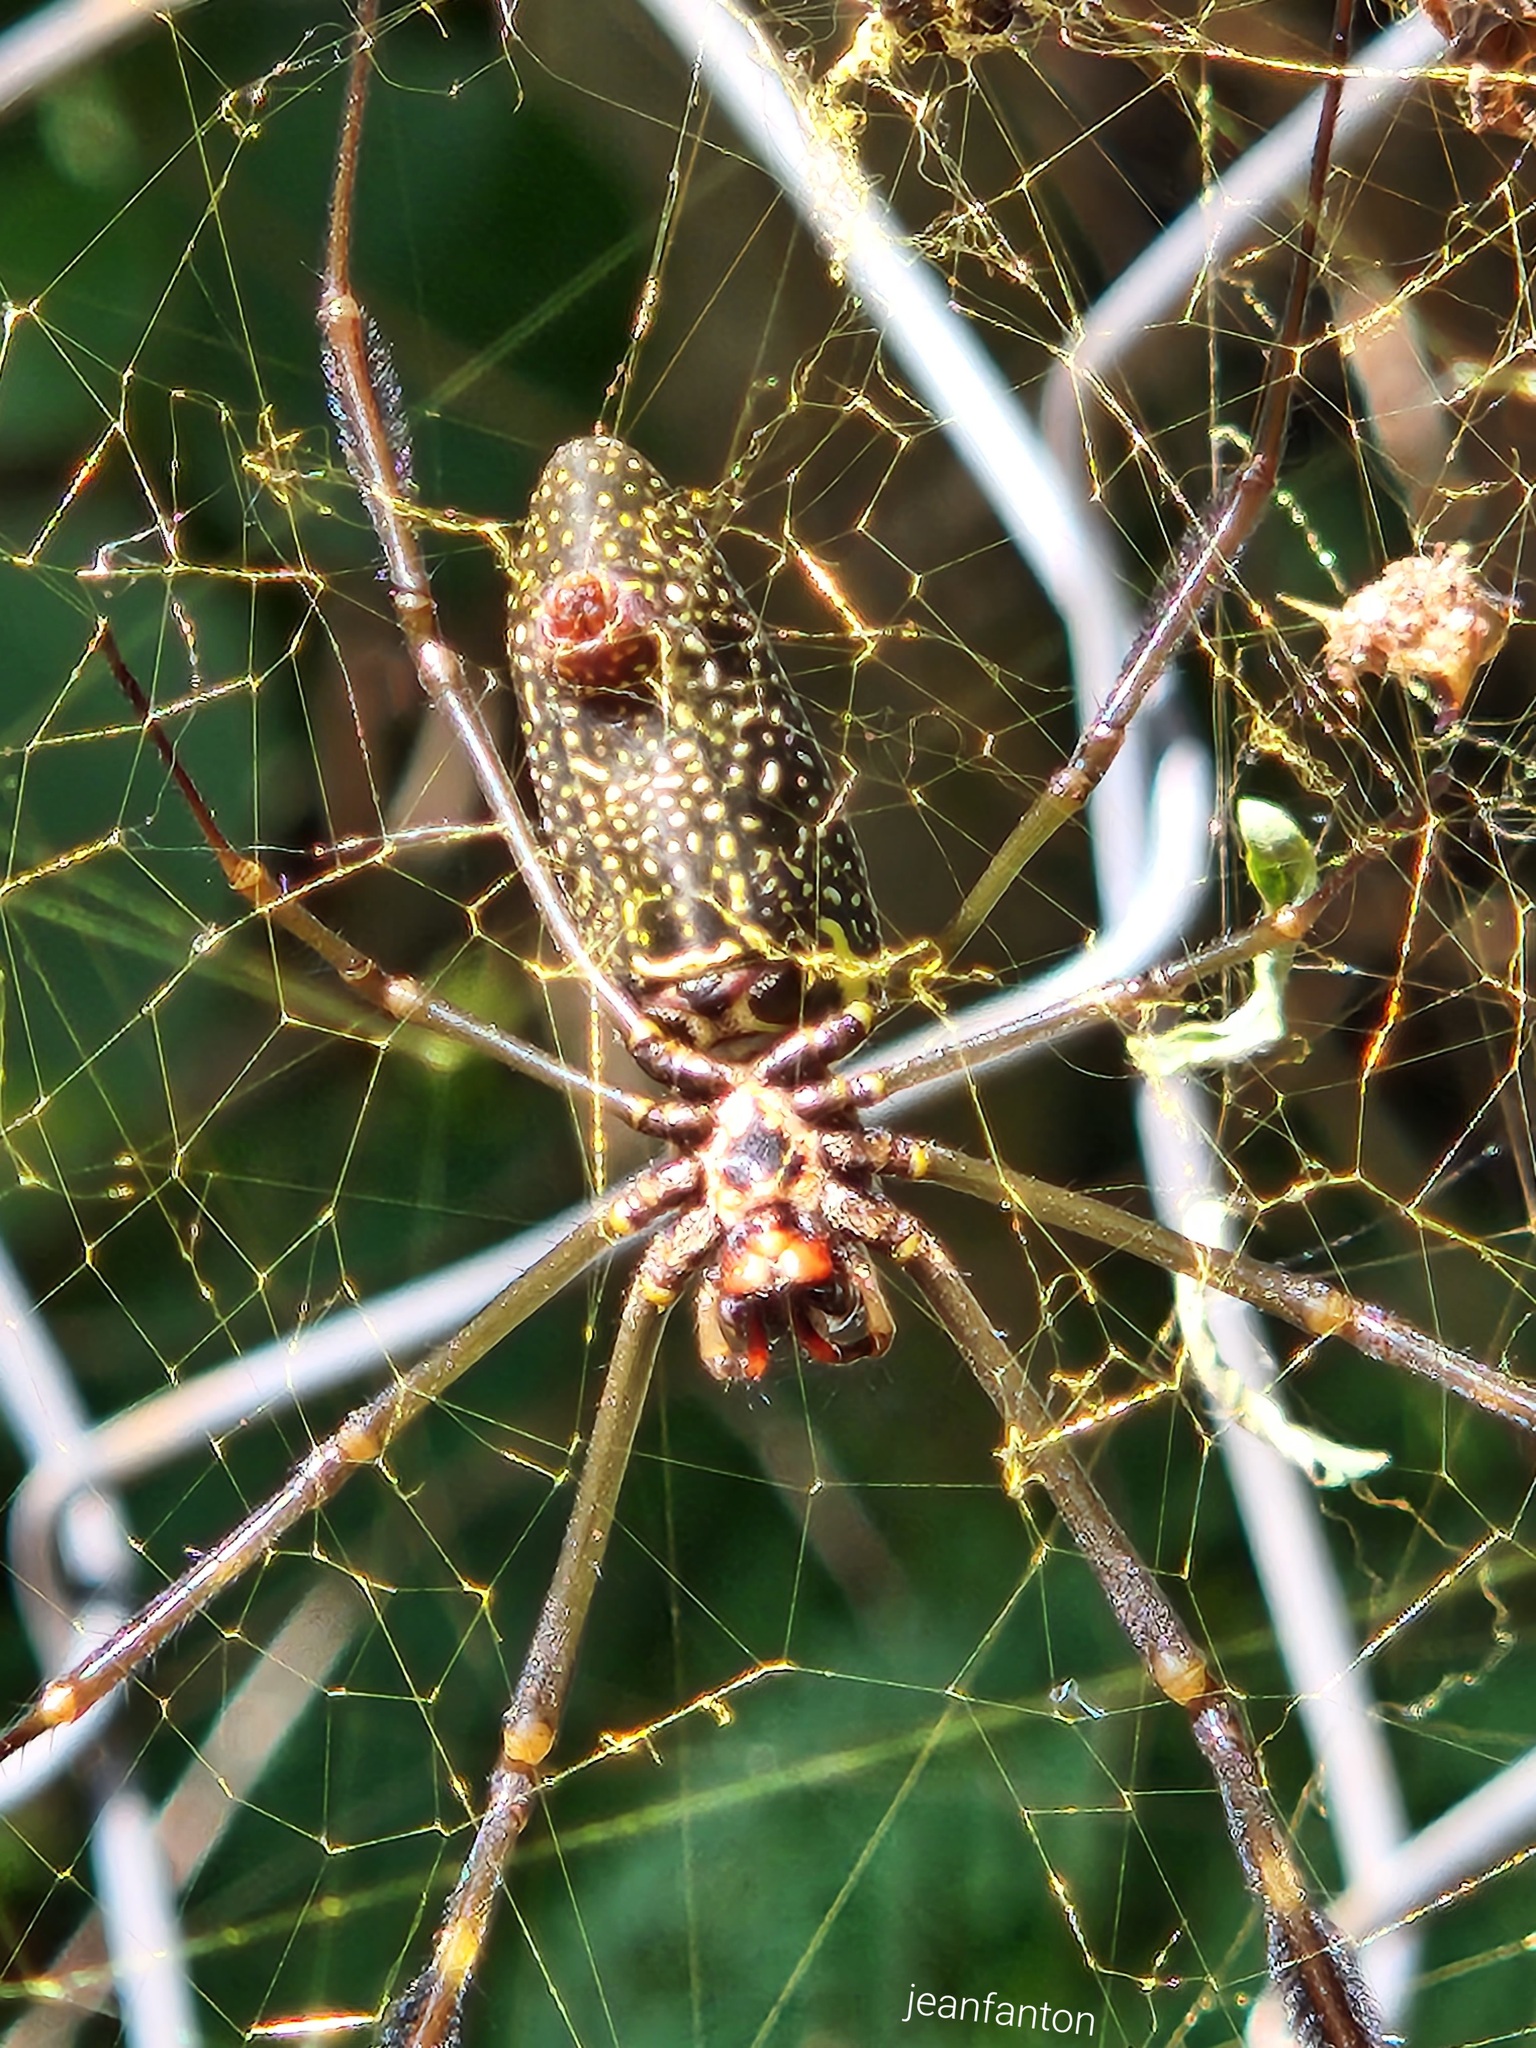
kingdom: Animalia
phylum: Arthropoda
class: Arachnida
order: Araneae
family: Araneidae
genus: Trichonephila
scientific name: Trichonephila clavipes
